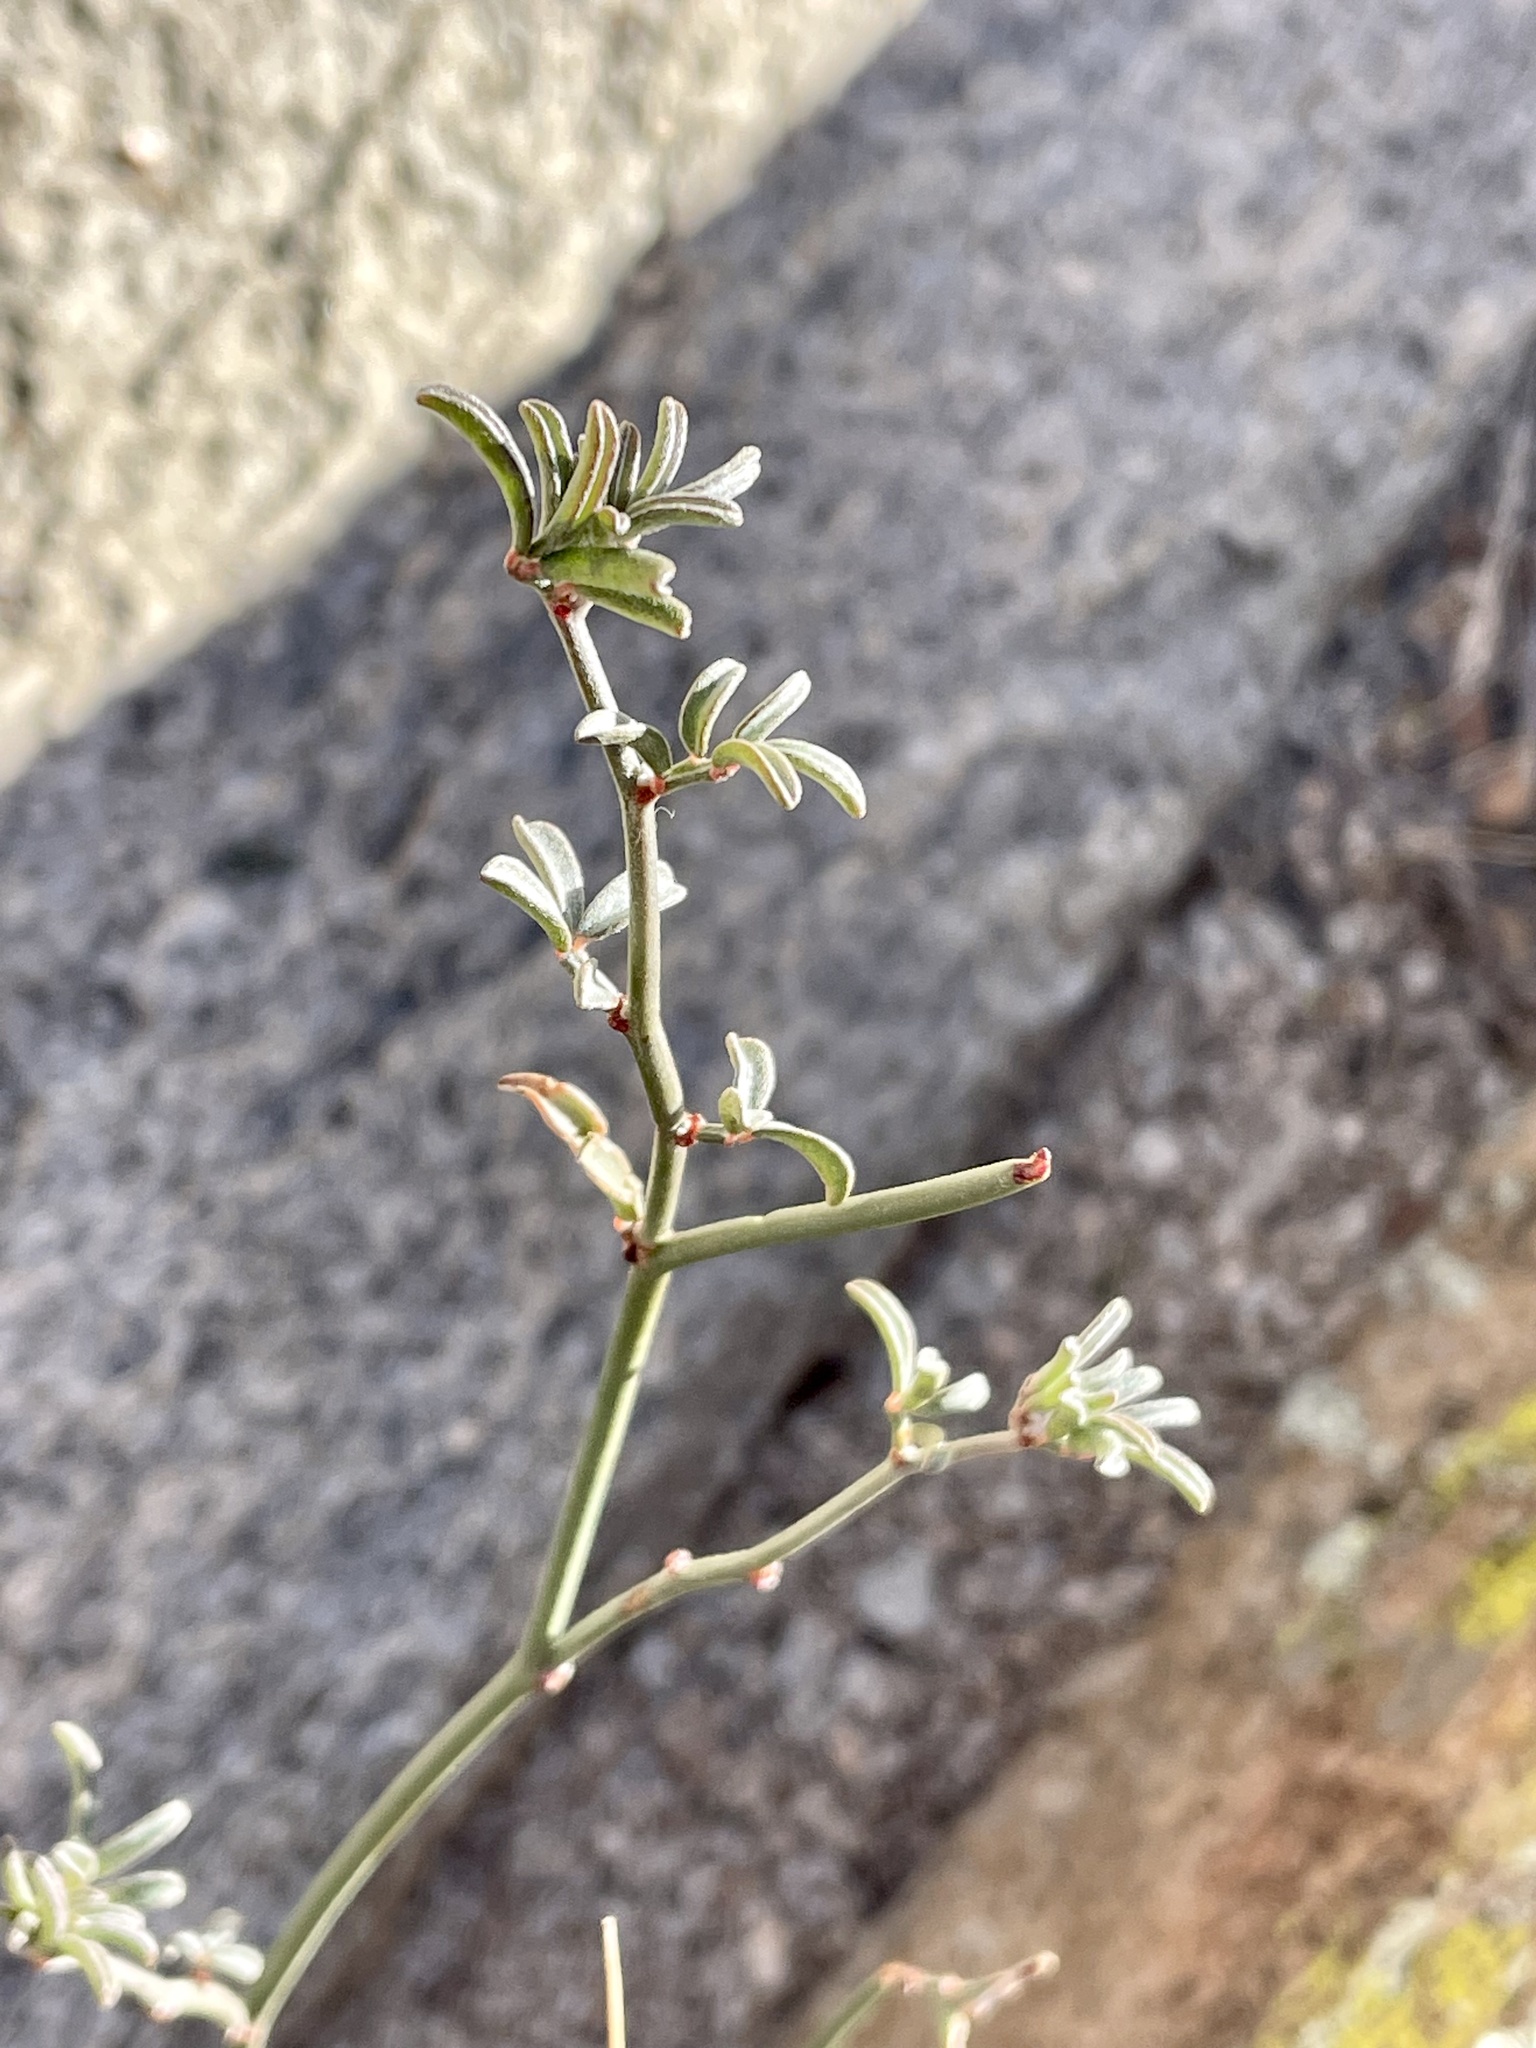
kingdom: Plantae
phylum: Tracheophyta
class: Magnoliopsida
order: Fabales
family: Fabaceae
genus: Acmispon
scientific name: Acmispon rigidus
